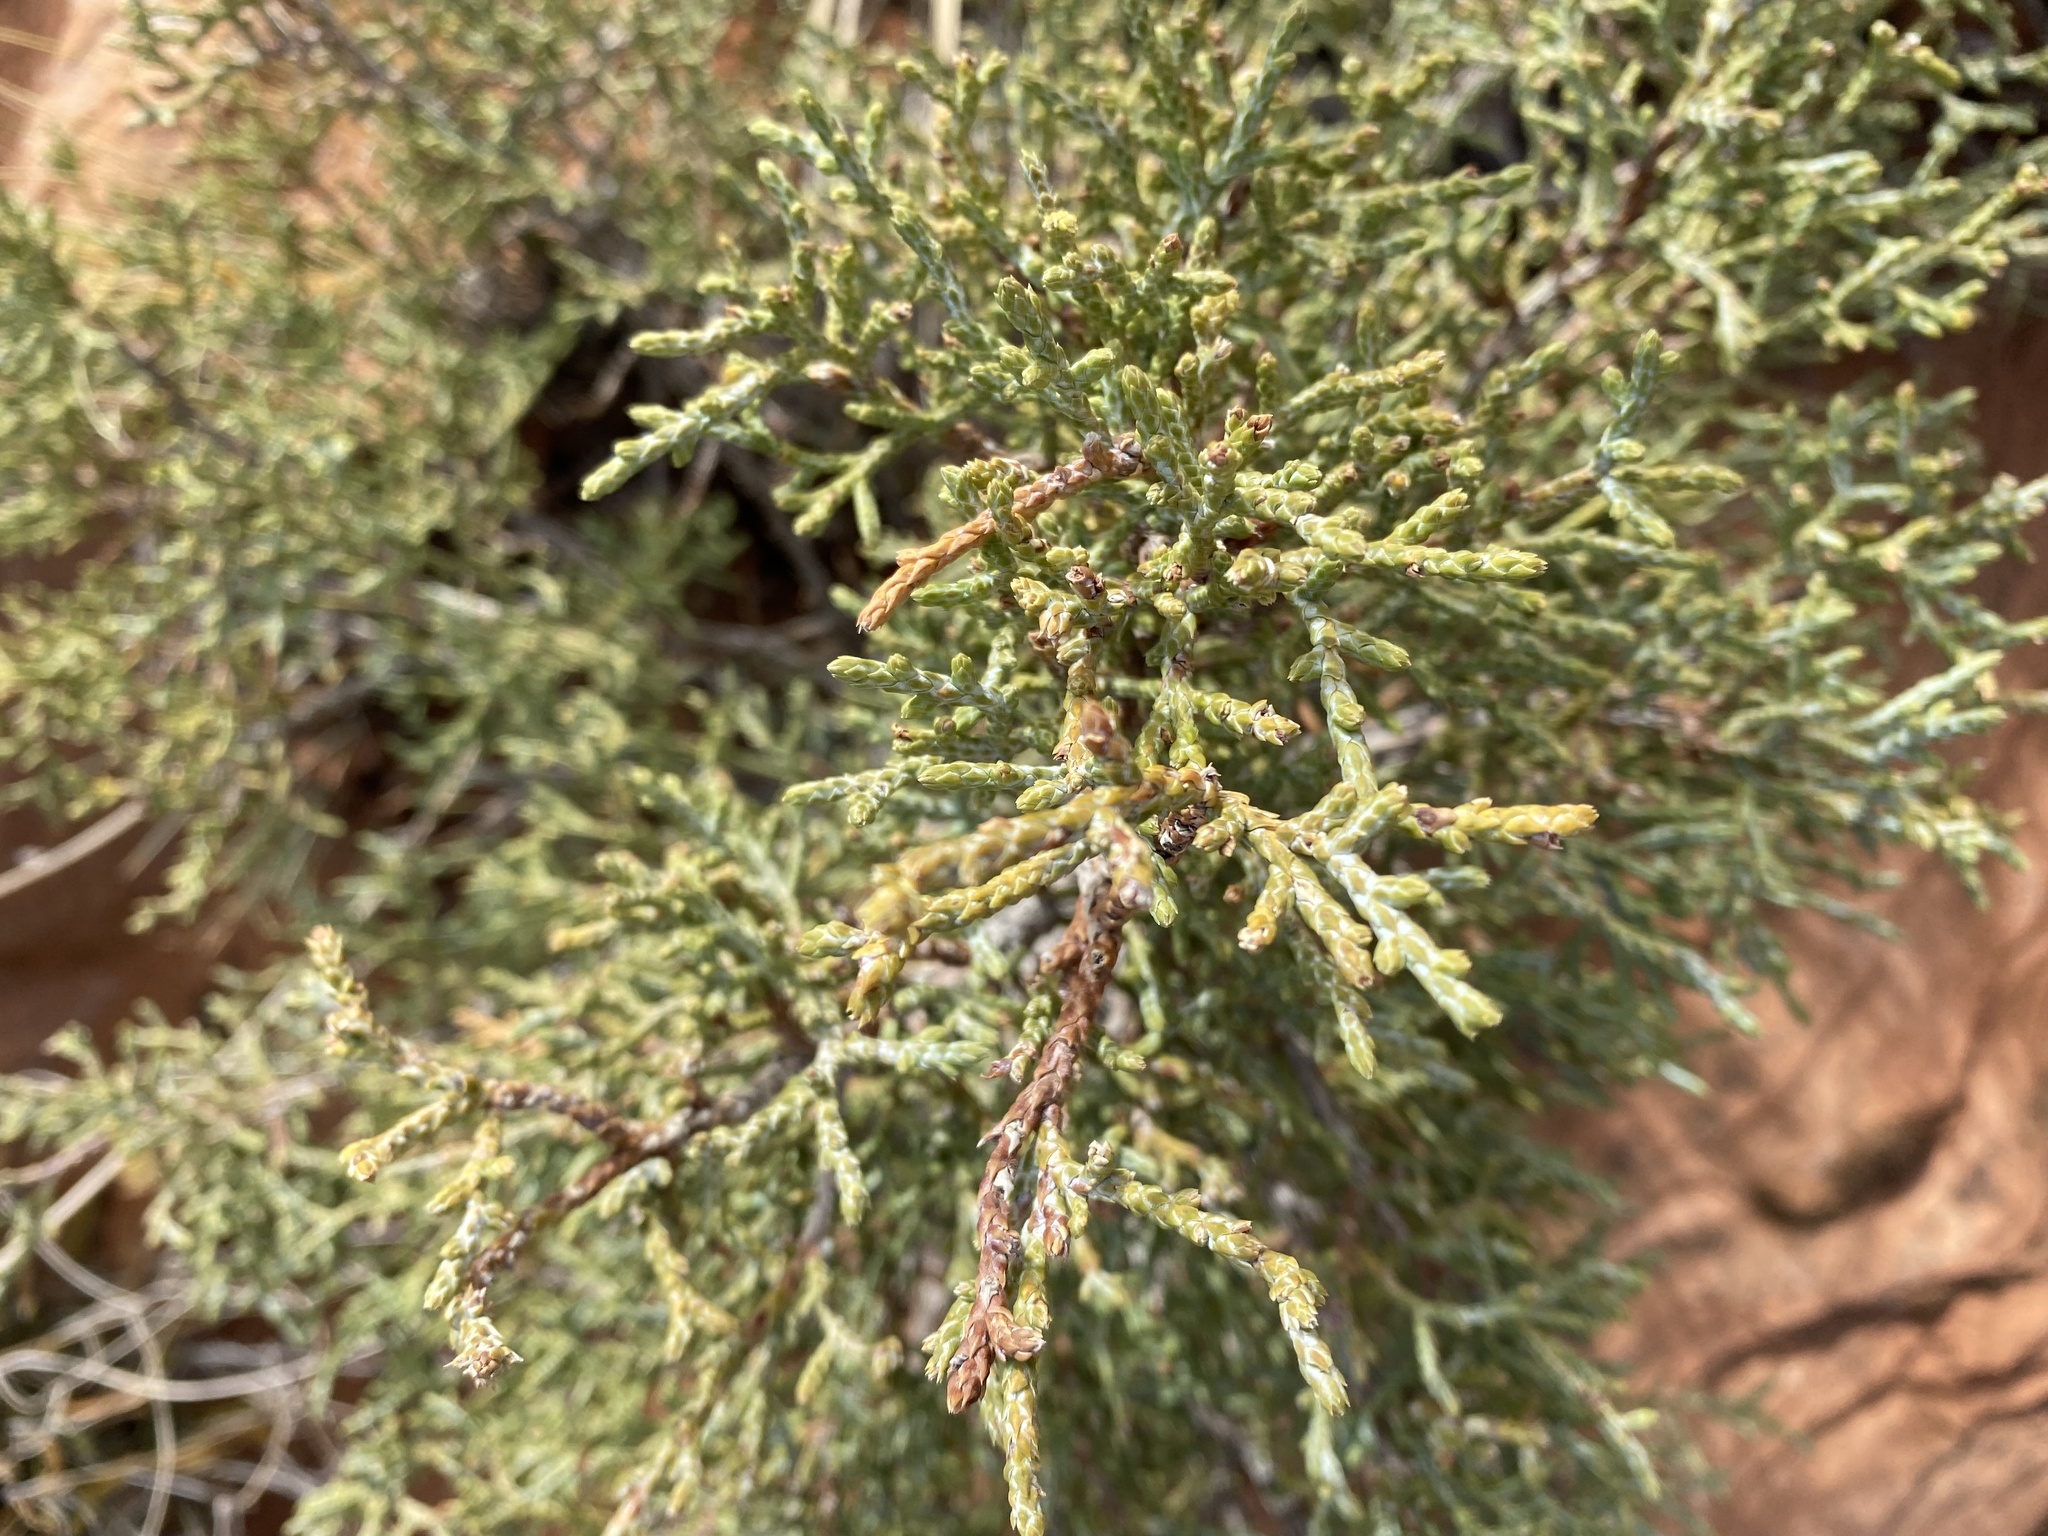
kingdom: Plantae
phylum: Tracheophyta
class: Pinopsida
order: Pinales
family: Cupressaceae
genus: Juniperus
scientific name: Juniperus osteosperma
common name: Utah juniper
